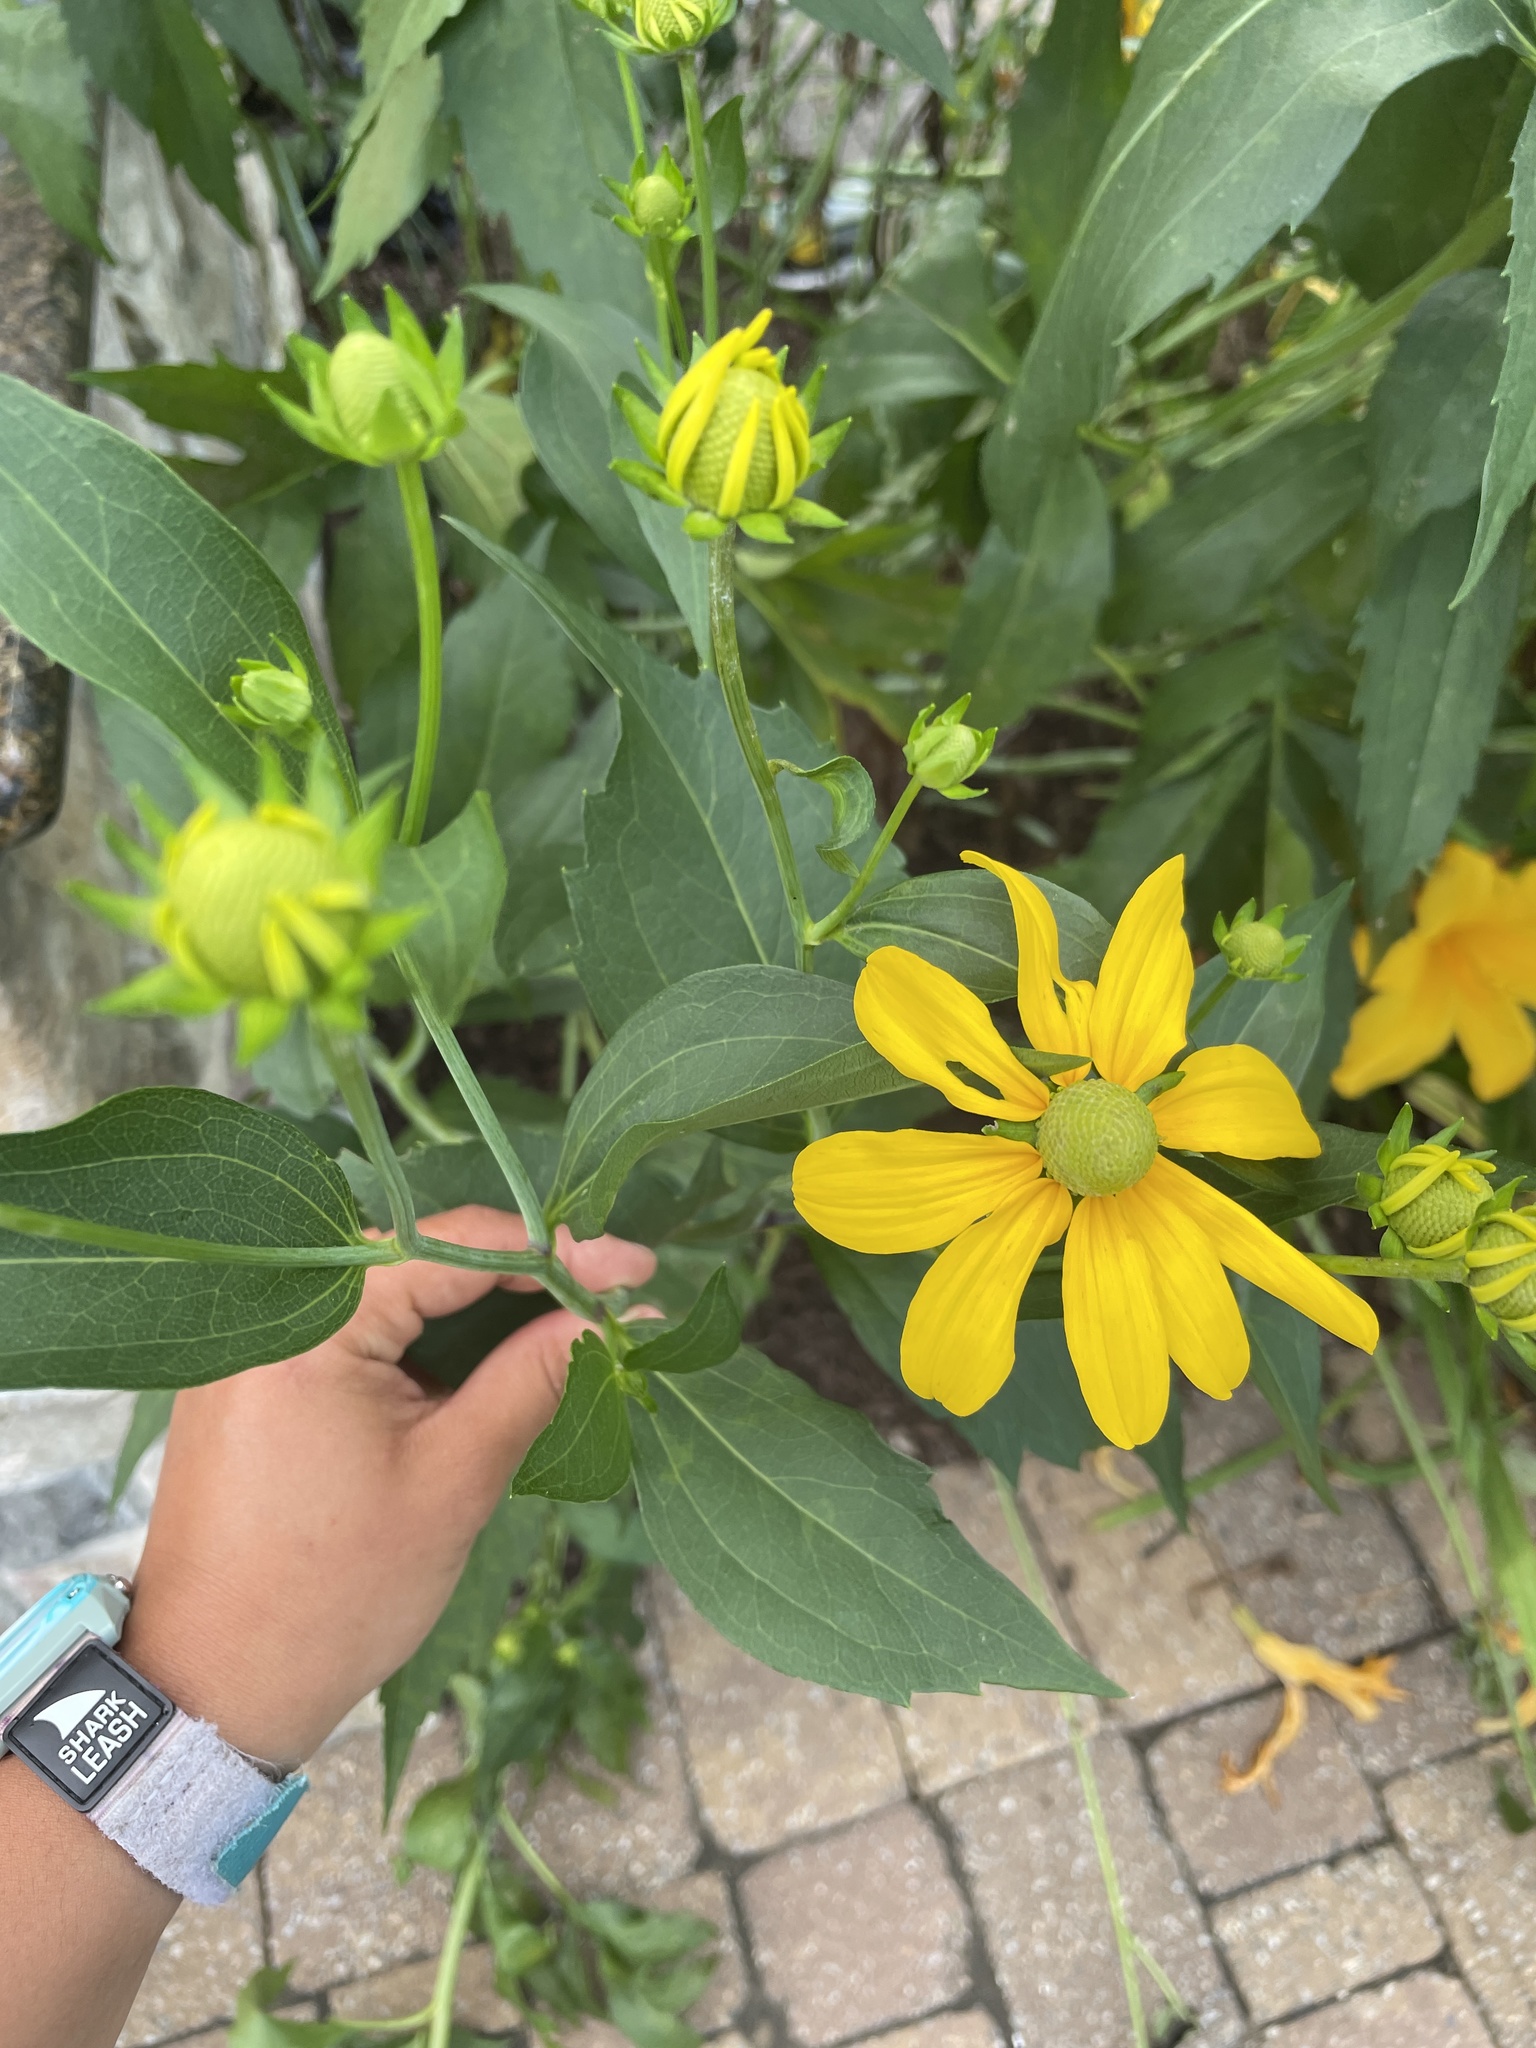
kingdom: Plantae
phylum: Tracheophyta
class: Magnoliopsida
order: Asterales
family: Asteraceae
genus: Rudbeckia
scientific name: Rudbeckia laciniata
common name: Coneflower
